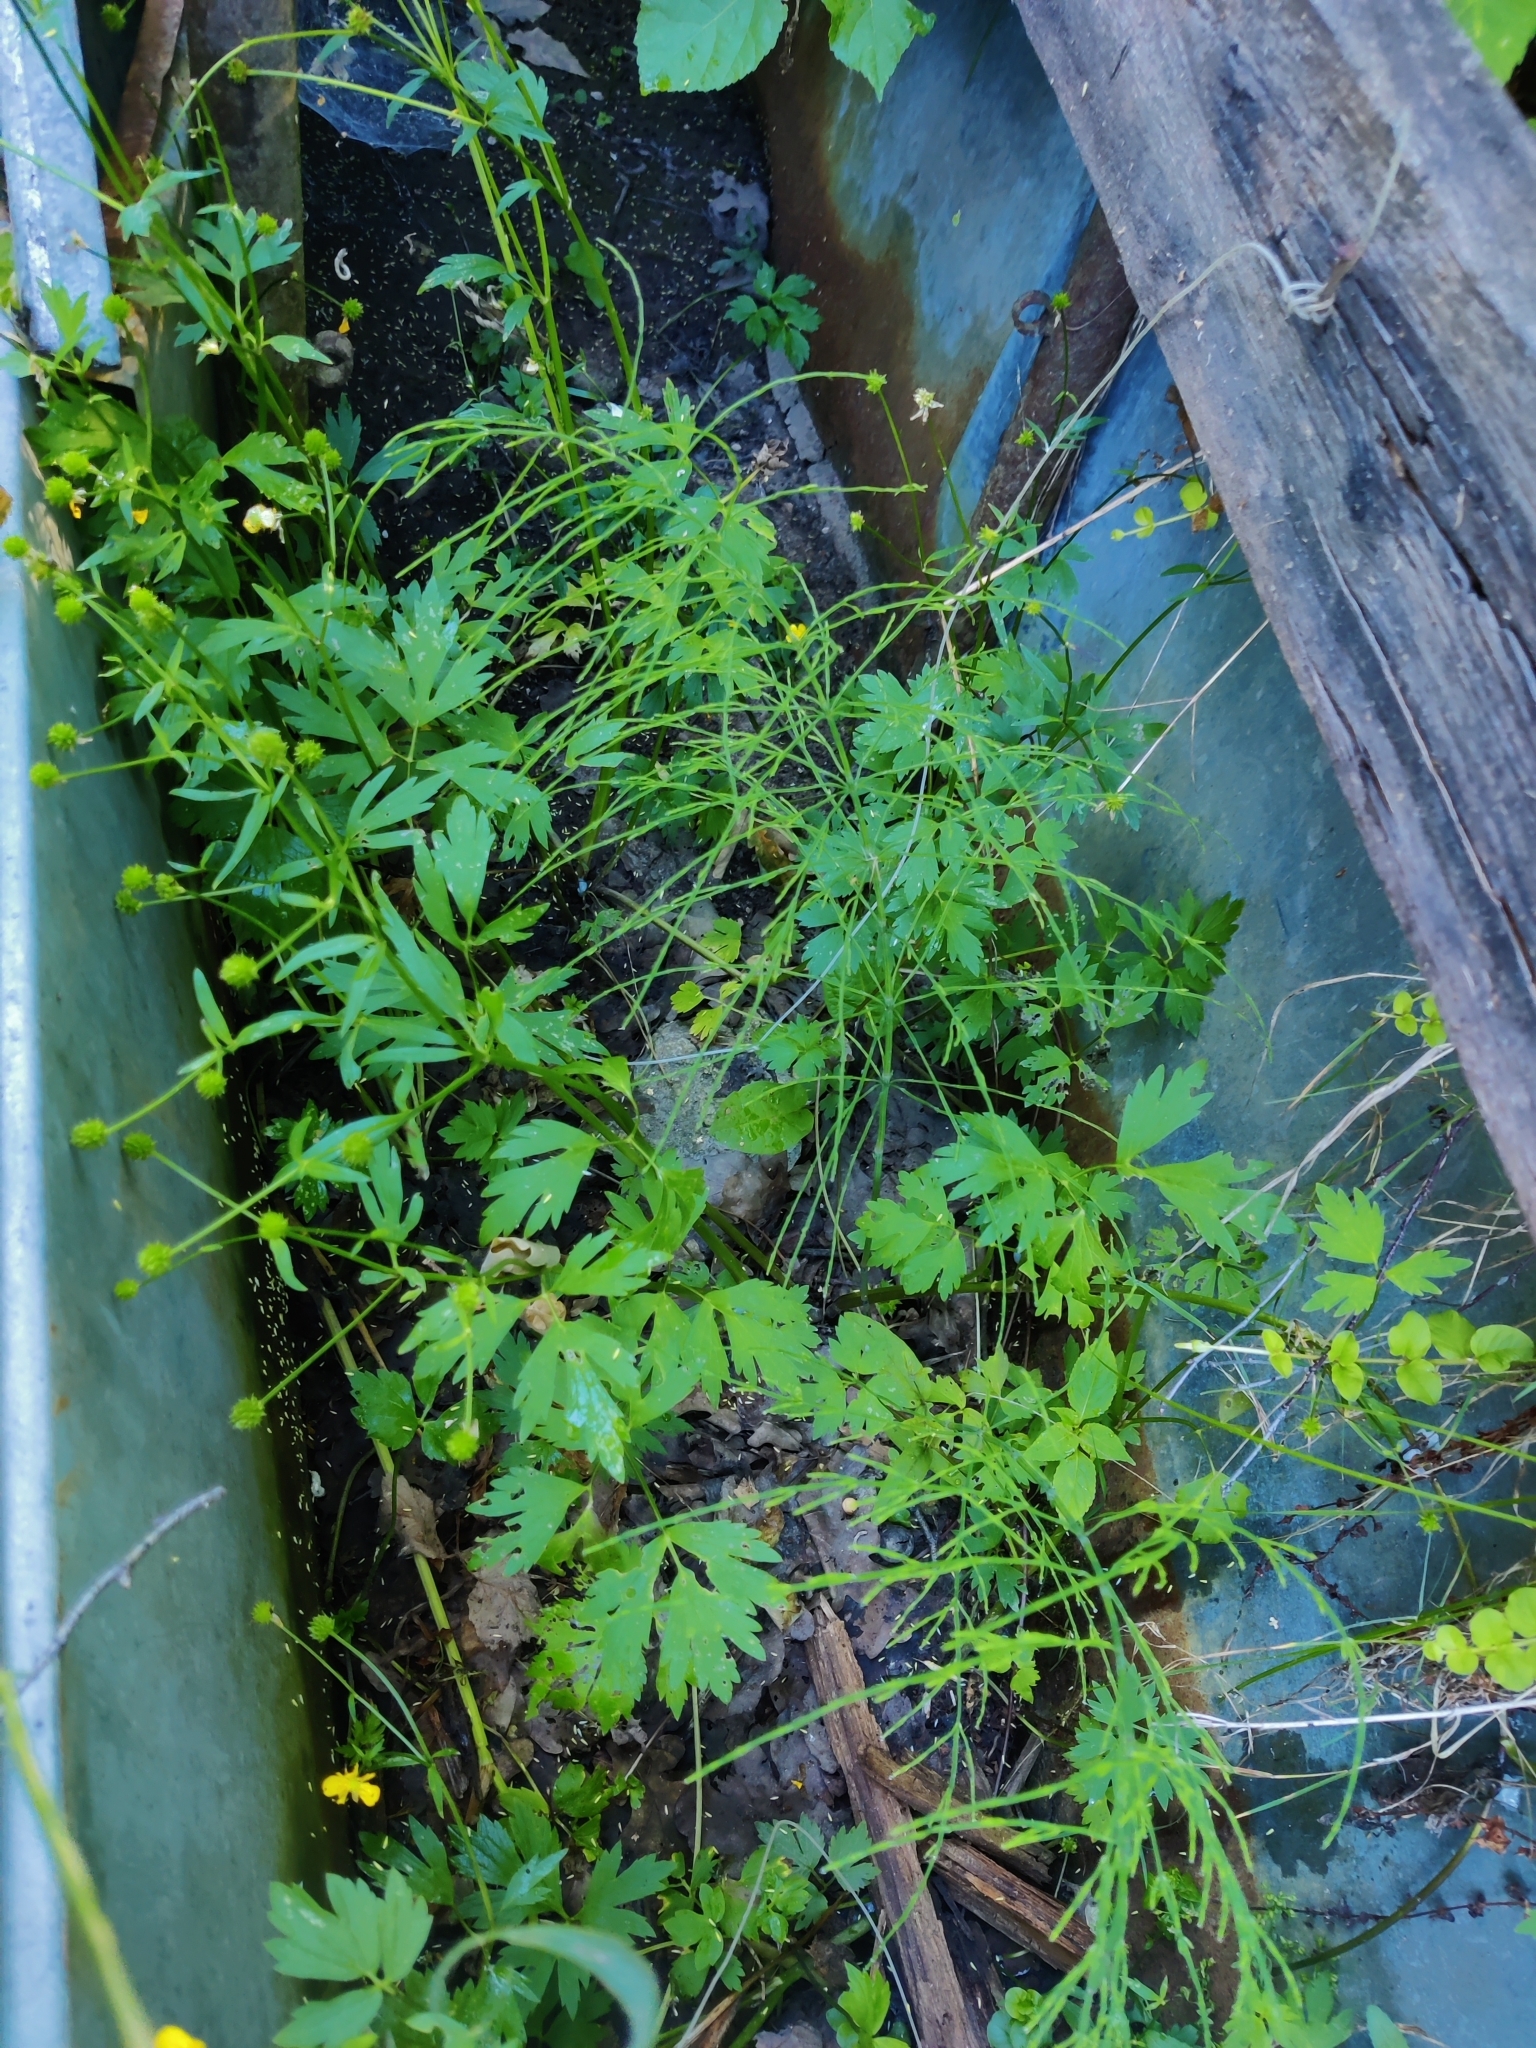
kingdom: Plantae
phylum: Tracheophyta
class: Polypodiopsida
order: Equisetales
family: Equisetaceae
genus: Equisetum
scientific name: Equisetum arvense
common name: Field horsetail
